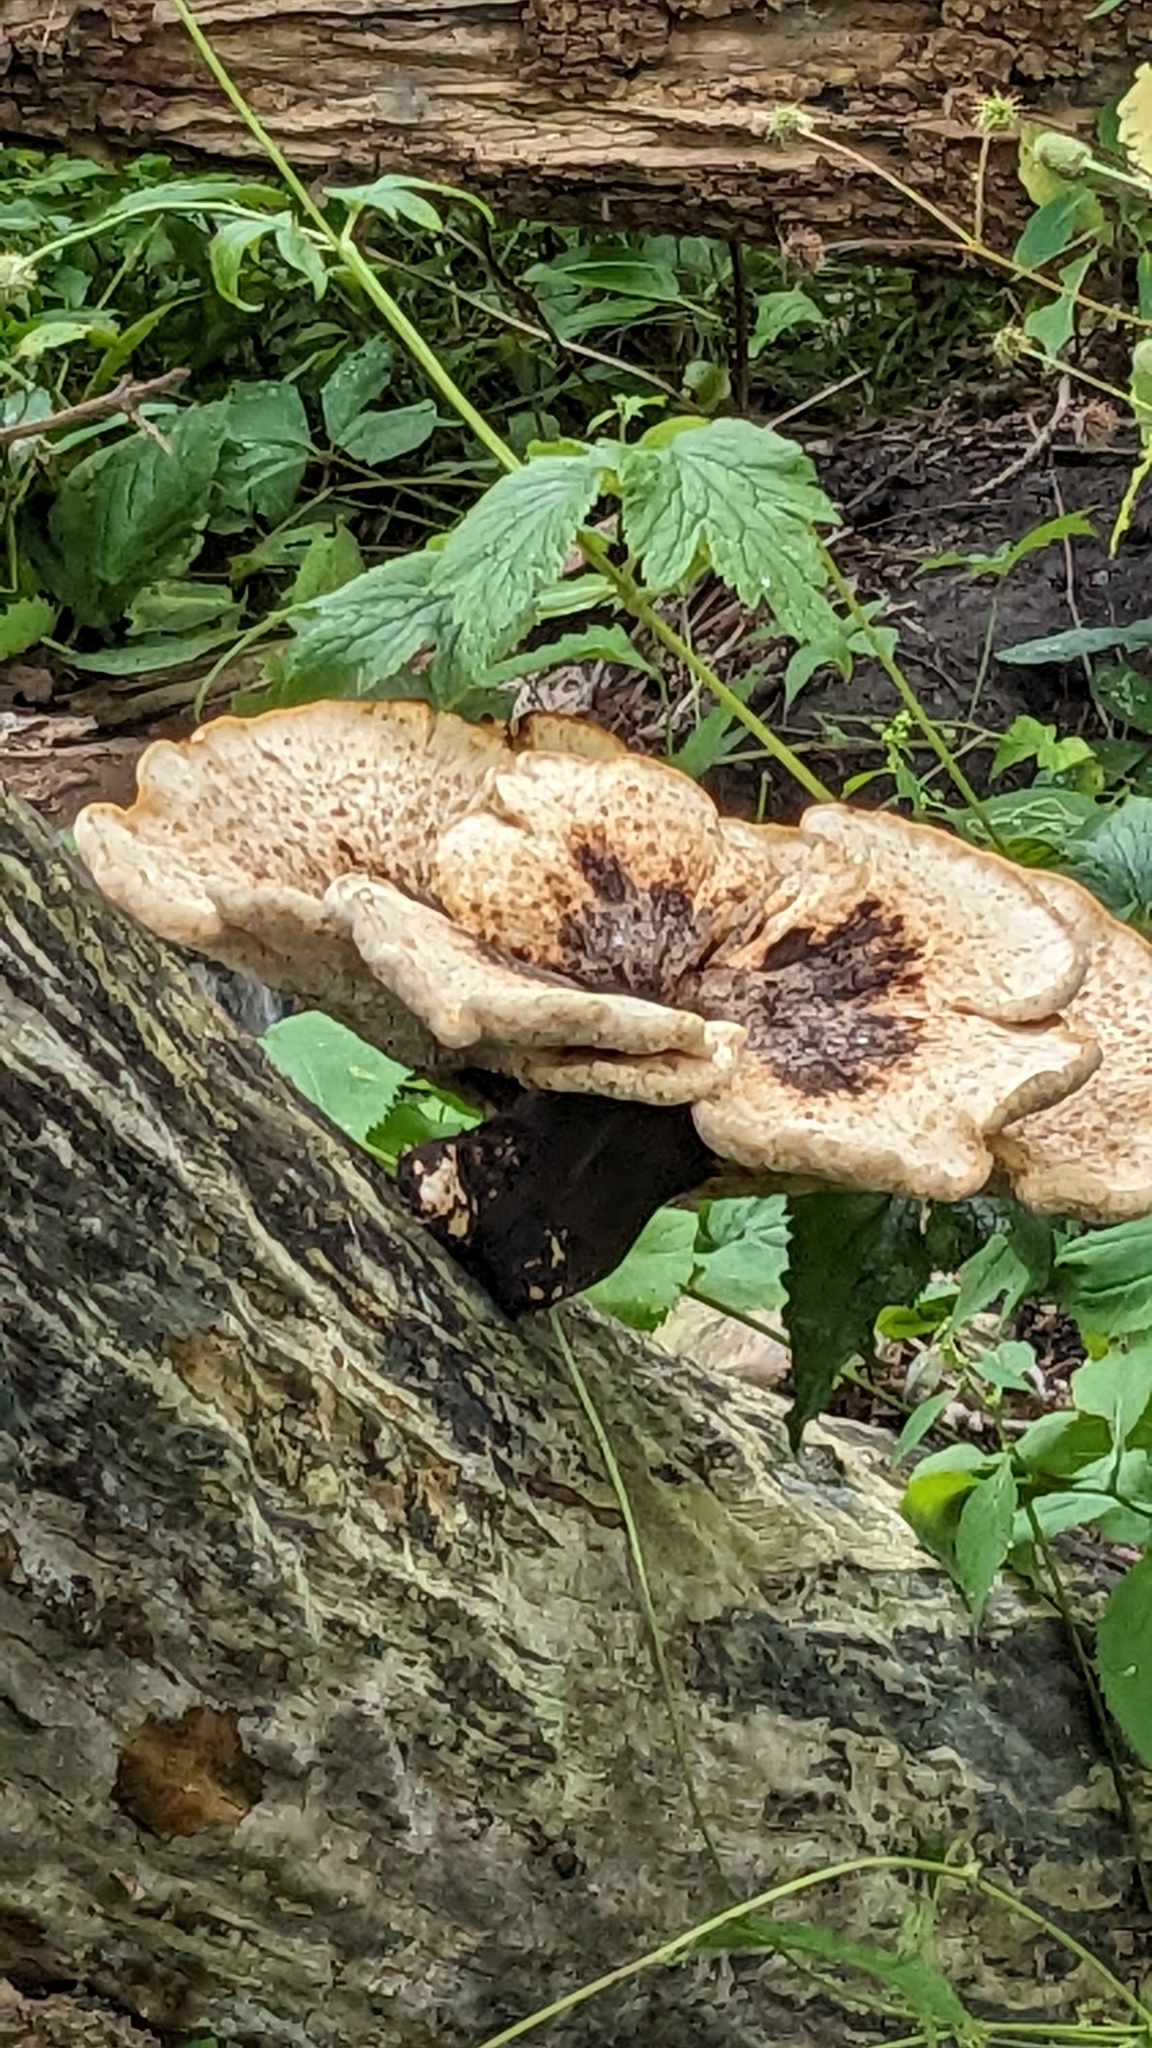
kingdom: Fungi
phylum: Basidiomycota
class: Agaricomycetes
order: Polyporales
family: Polyporaceae
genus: Cerioporus
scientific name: Cerioporus squamosus
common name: Dryad's saddle
